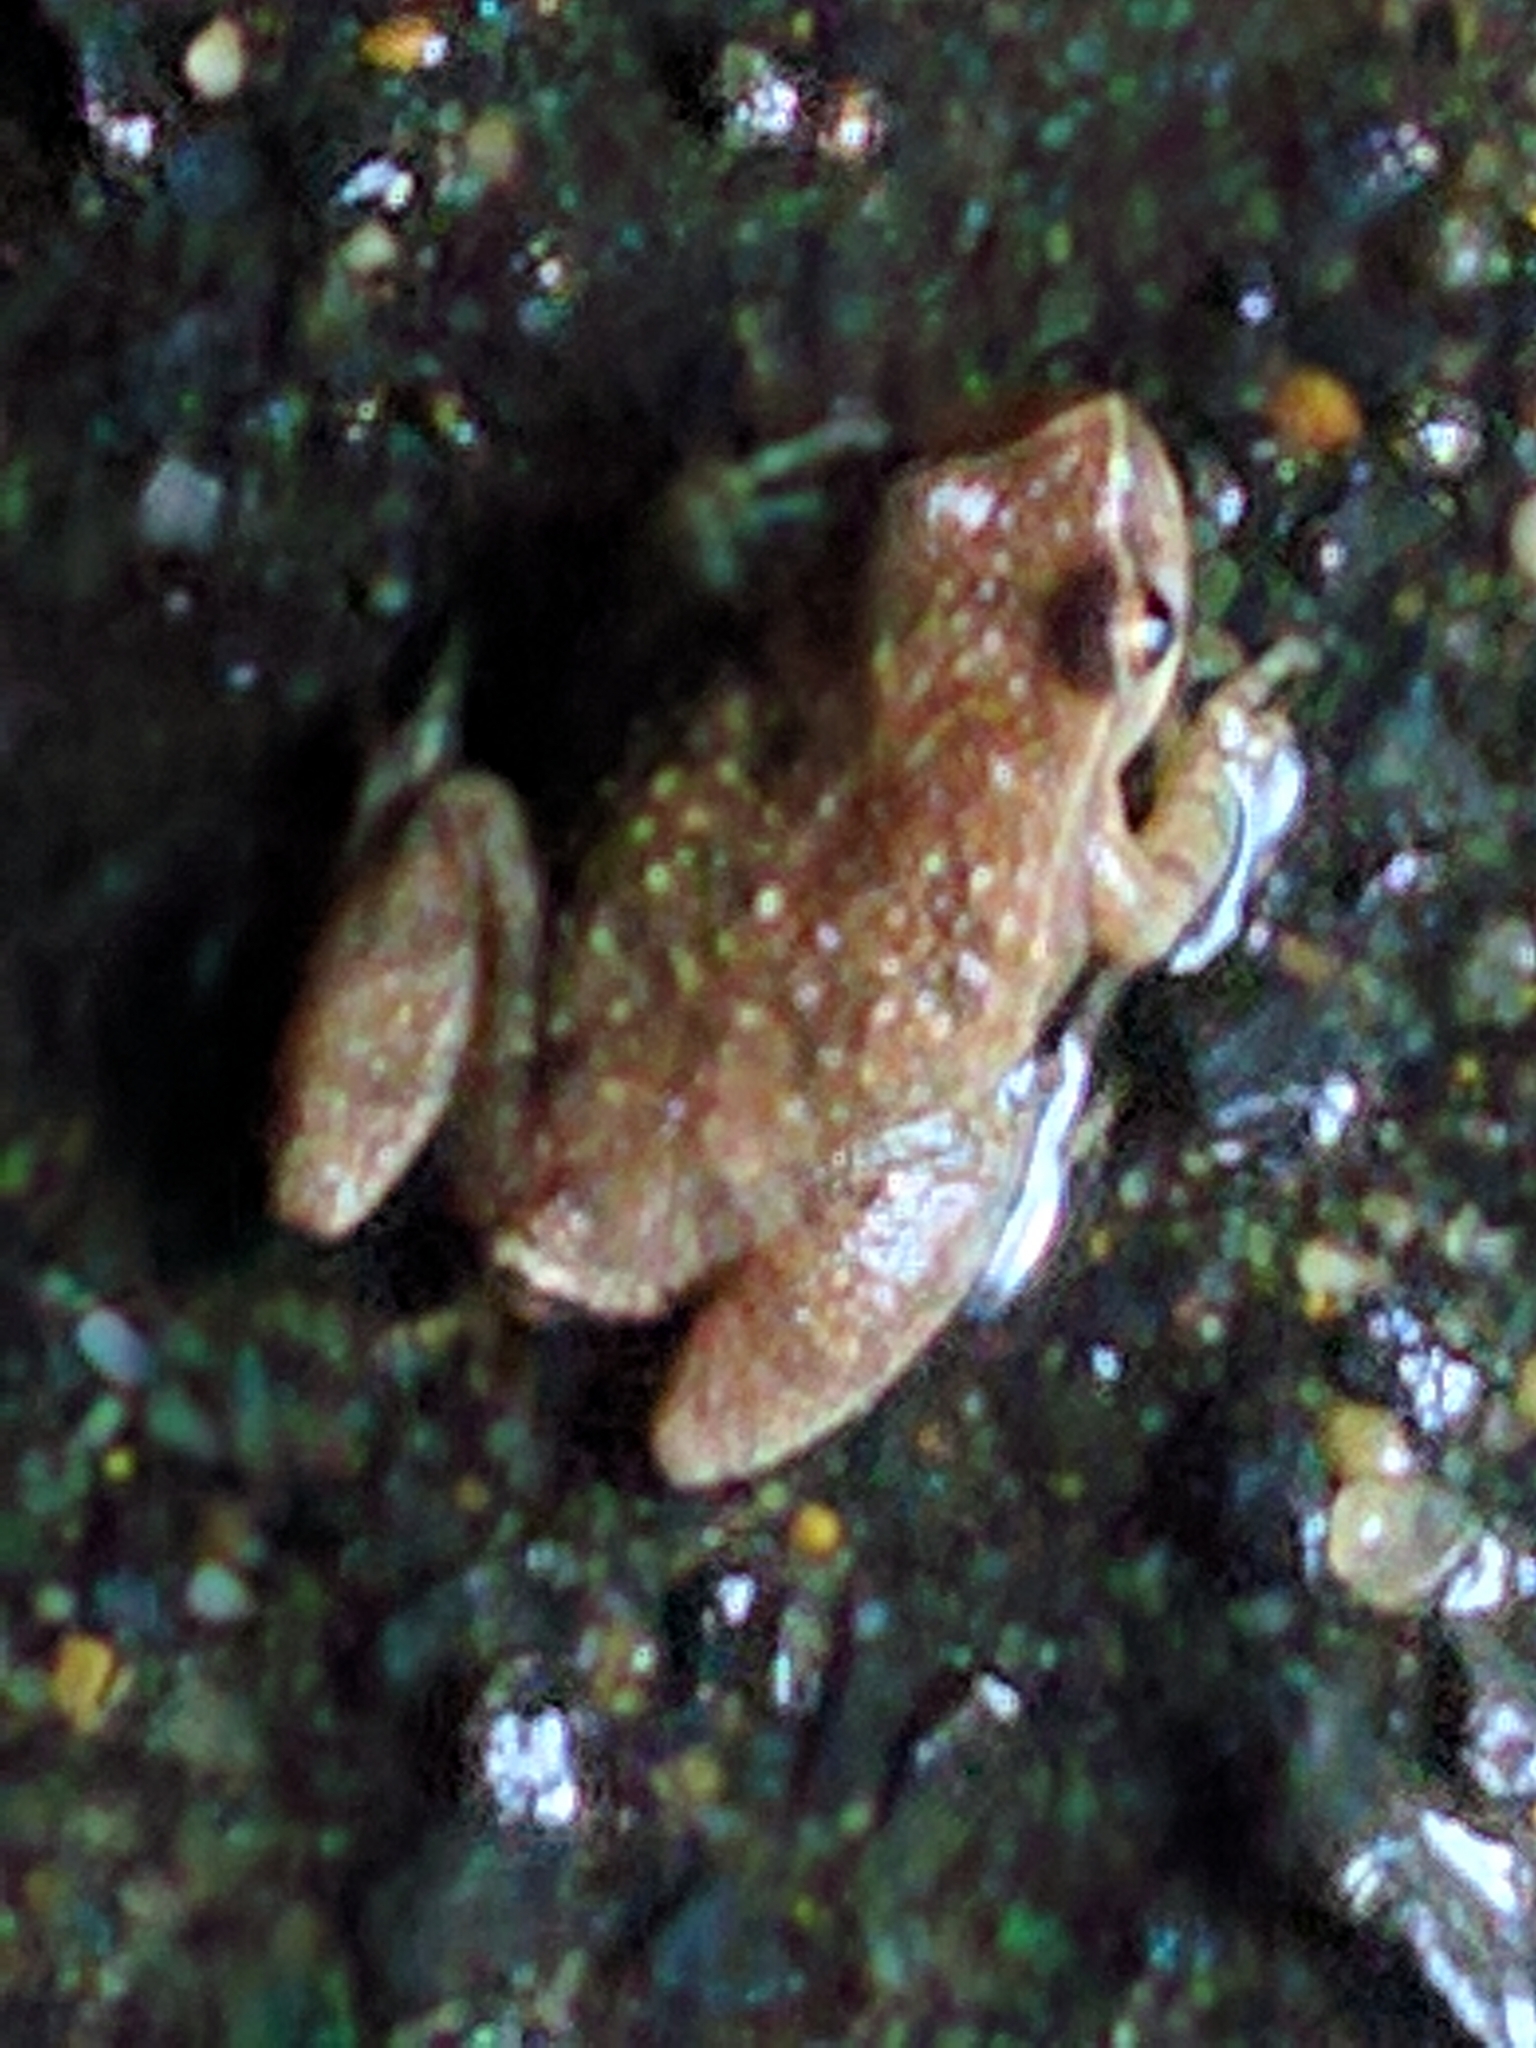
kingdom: Animalia
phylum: Chordata
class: Amphibia
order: Anura
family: Hylidae
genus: Pseudacris
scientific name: Pseudacris crucifer
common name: Spring peeper
